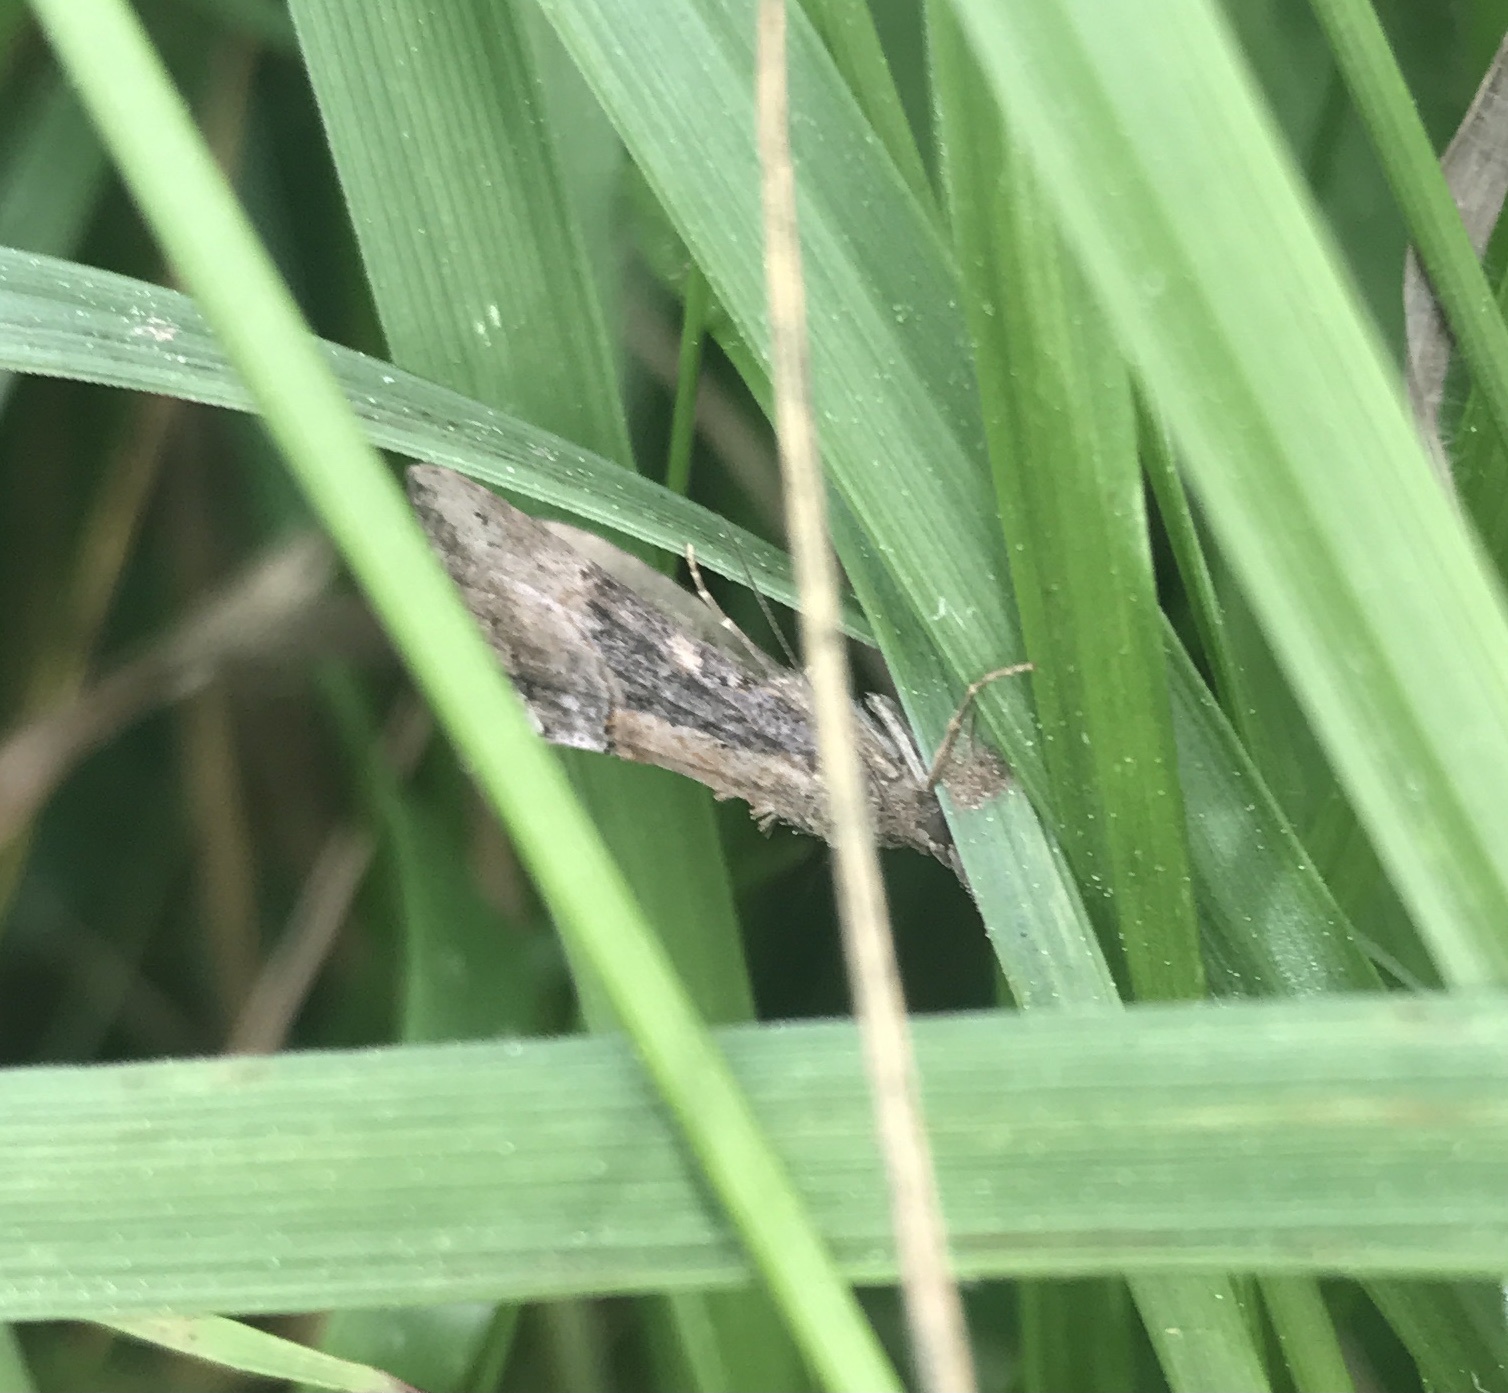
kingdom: Animalia
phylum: Arthropoda
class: Insecta
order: Lepidoptera
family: Erebidae
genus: Hypena
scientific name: Hypena scabra
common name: Green cloverworm
